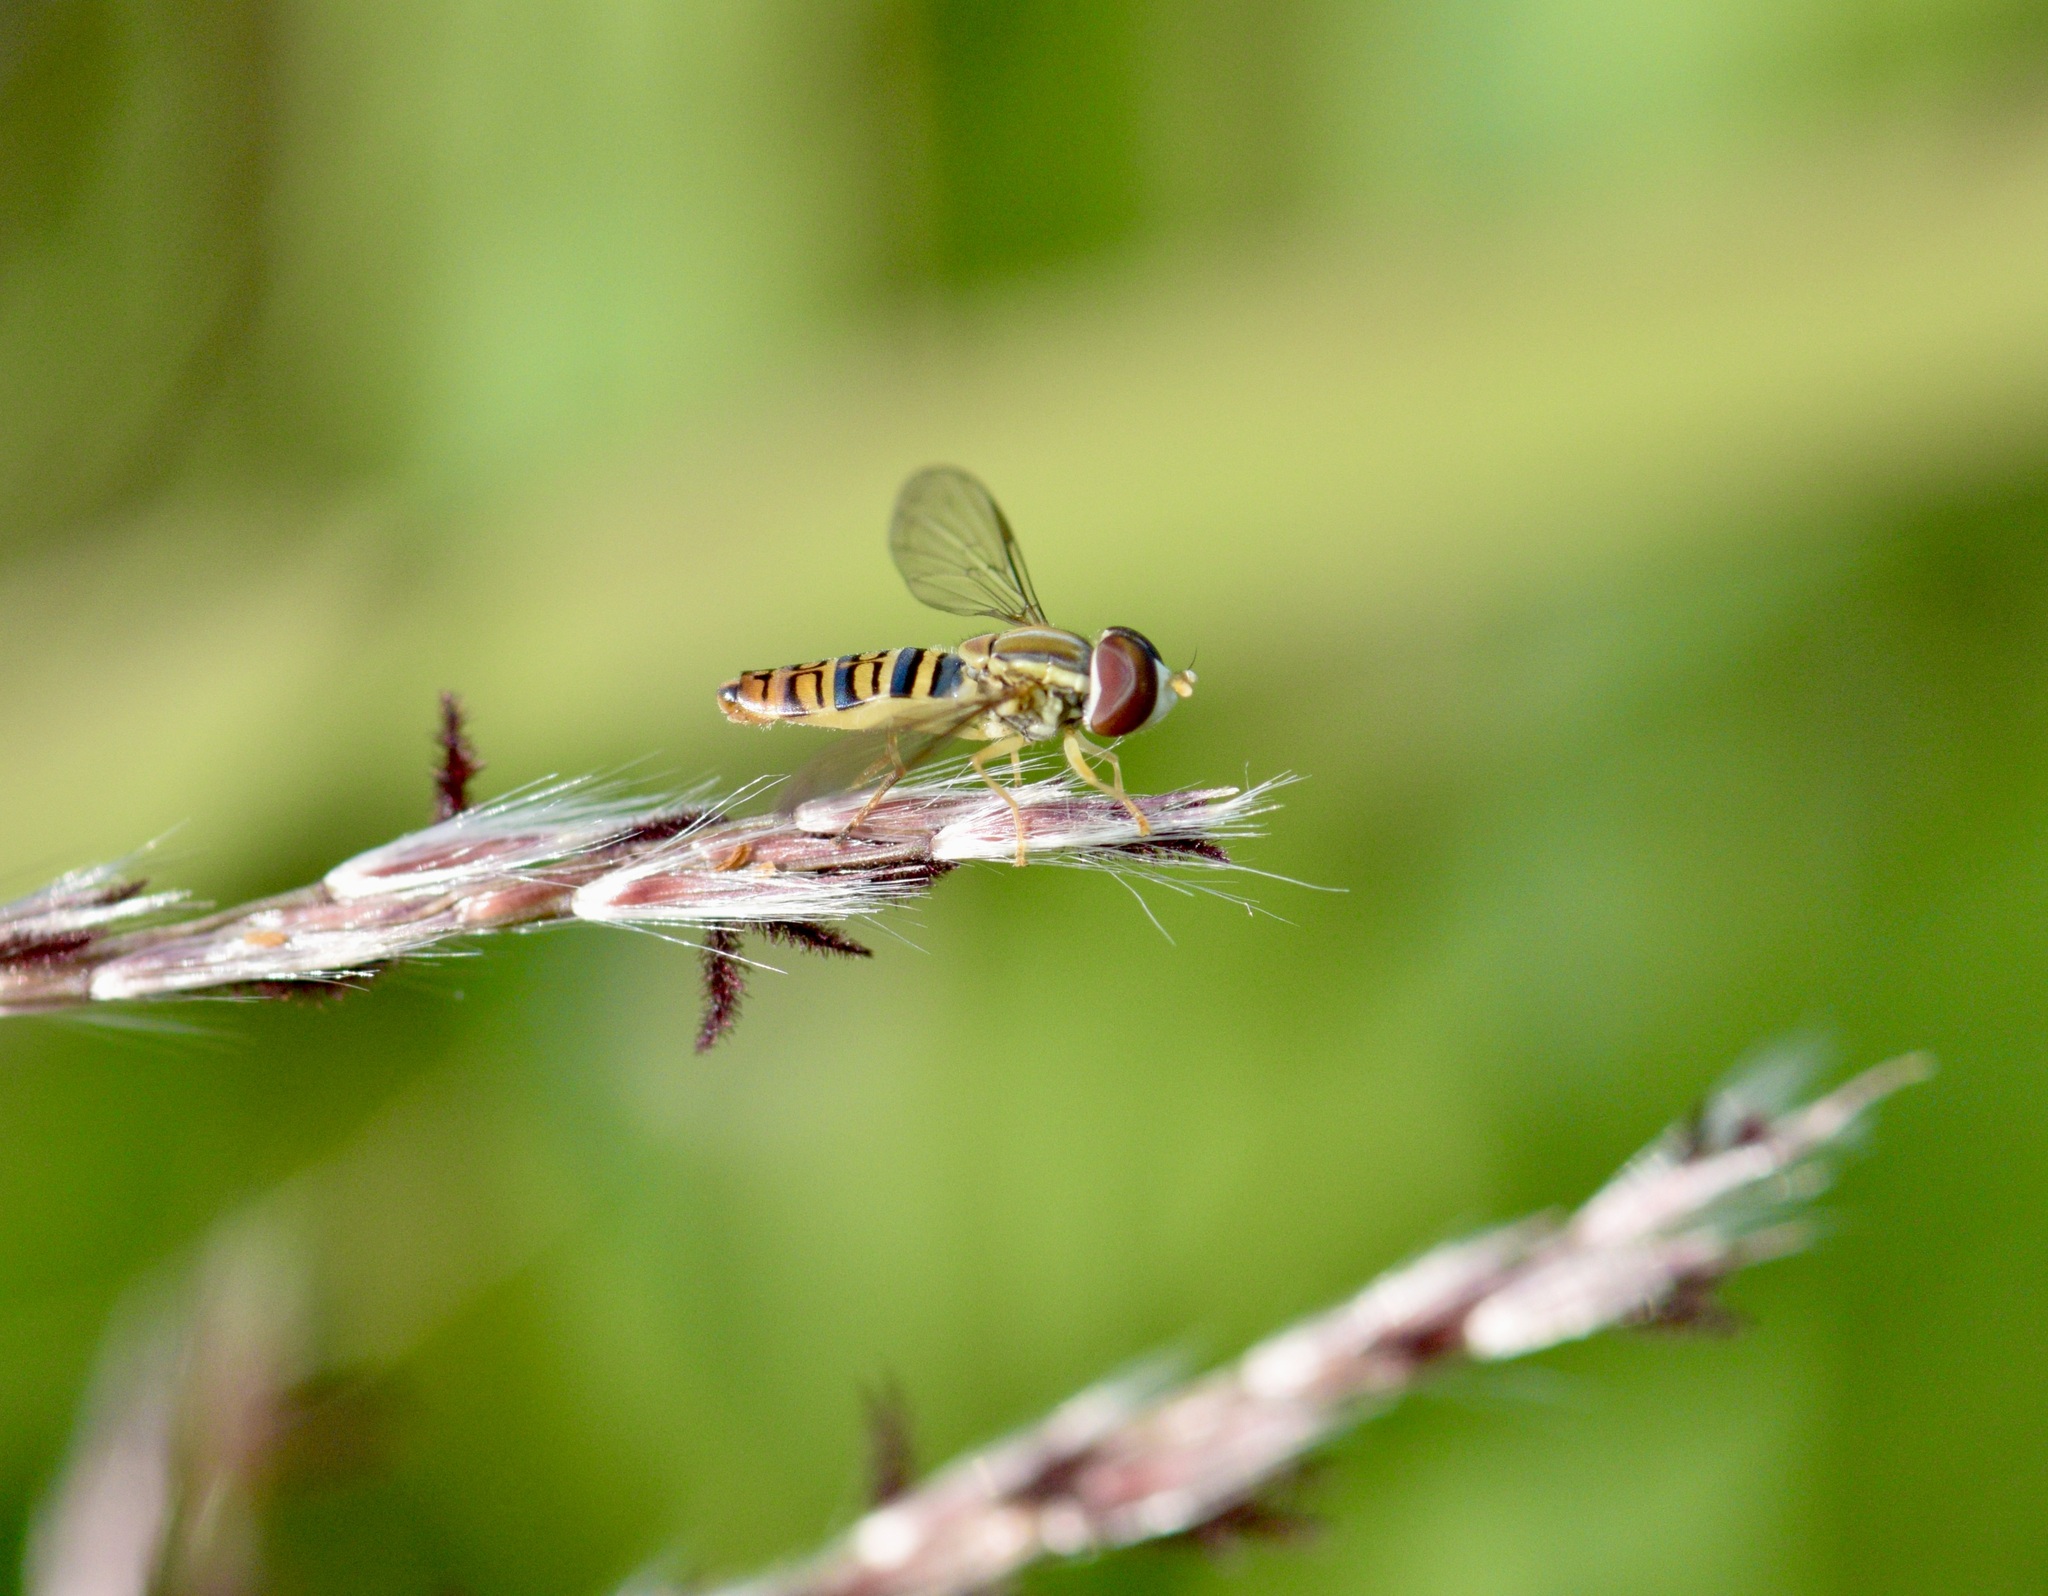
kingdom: Animalia
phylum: Arthropoda
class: Insecta
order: Diptera
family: Syrphidae
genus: Toxomerus
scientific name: Toxomerus politus
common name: Maize calligrapher
